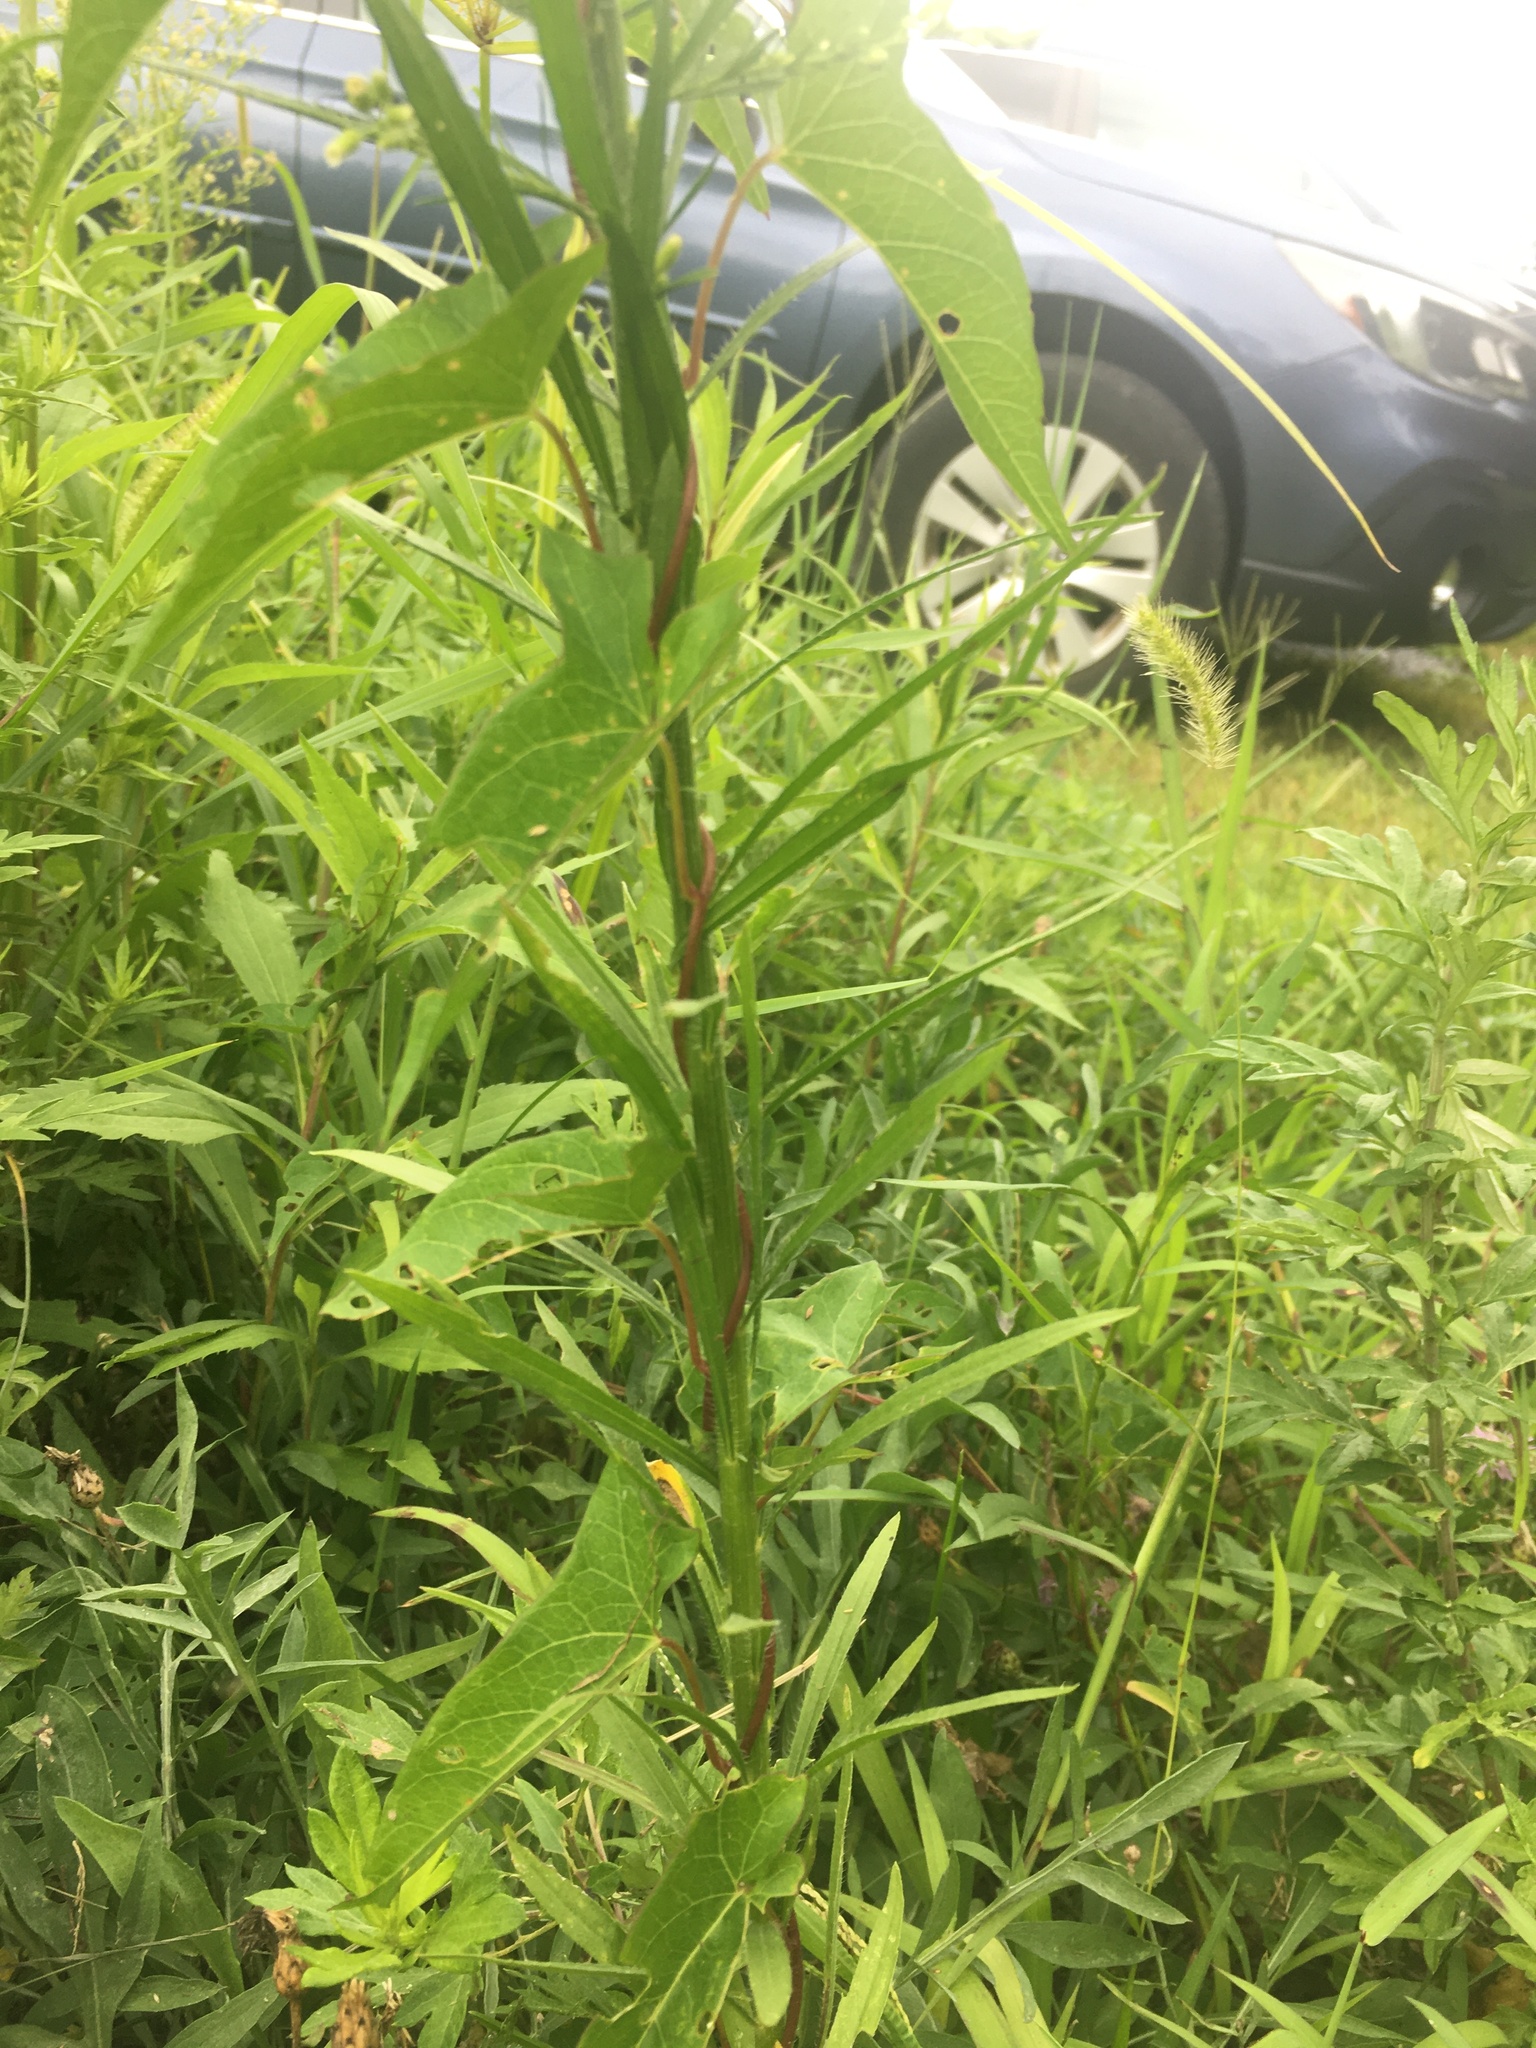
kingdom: Plantae
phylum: Tracheophyta
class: Magnoliopsida
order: Asterales
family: Asteraceae
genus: Erigeron
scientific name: Erigeron canadensis
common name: Canadian fleabane
